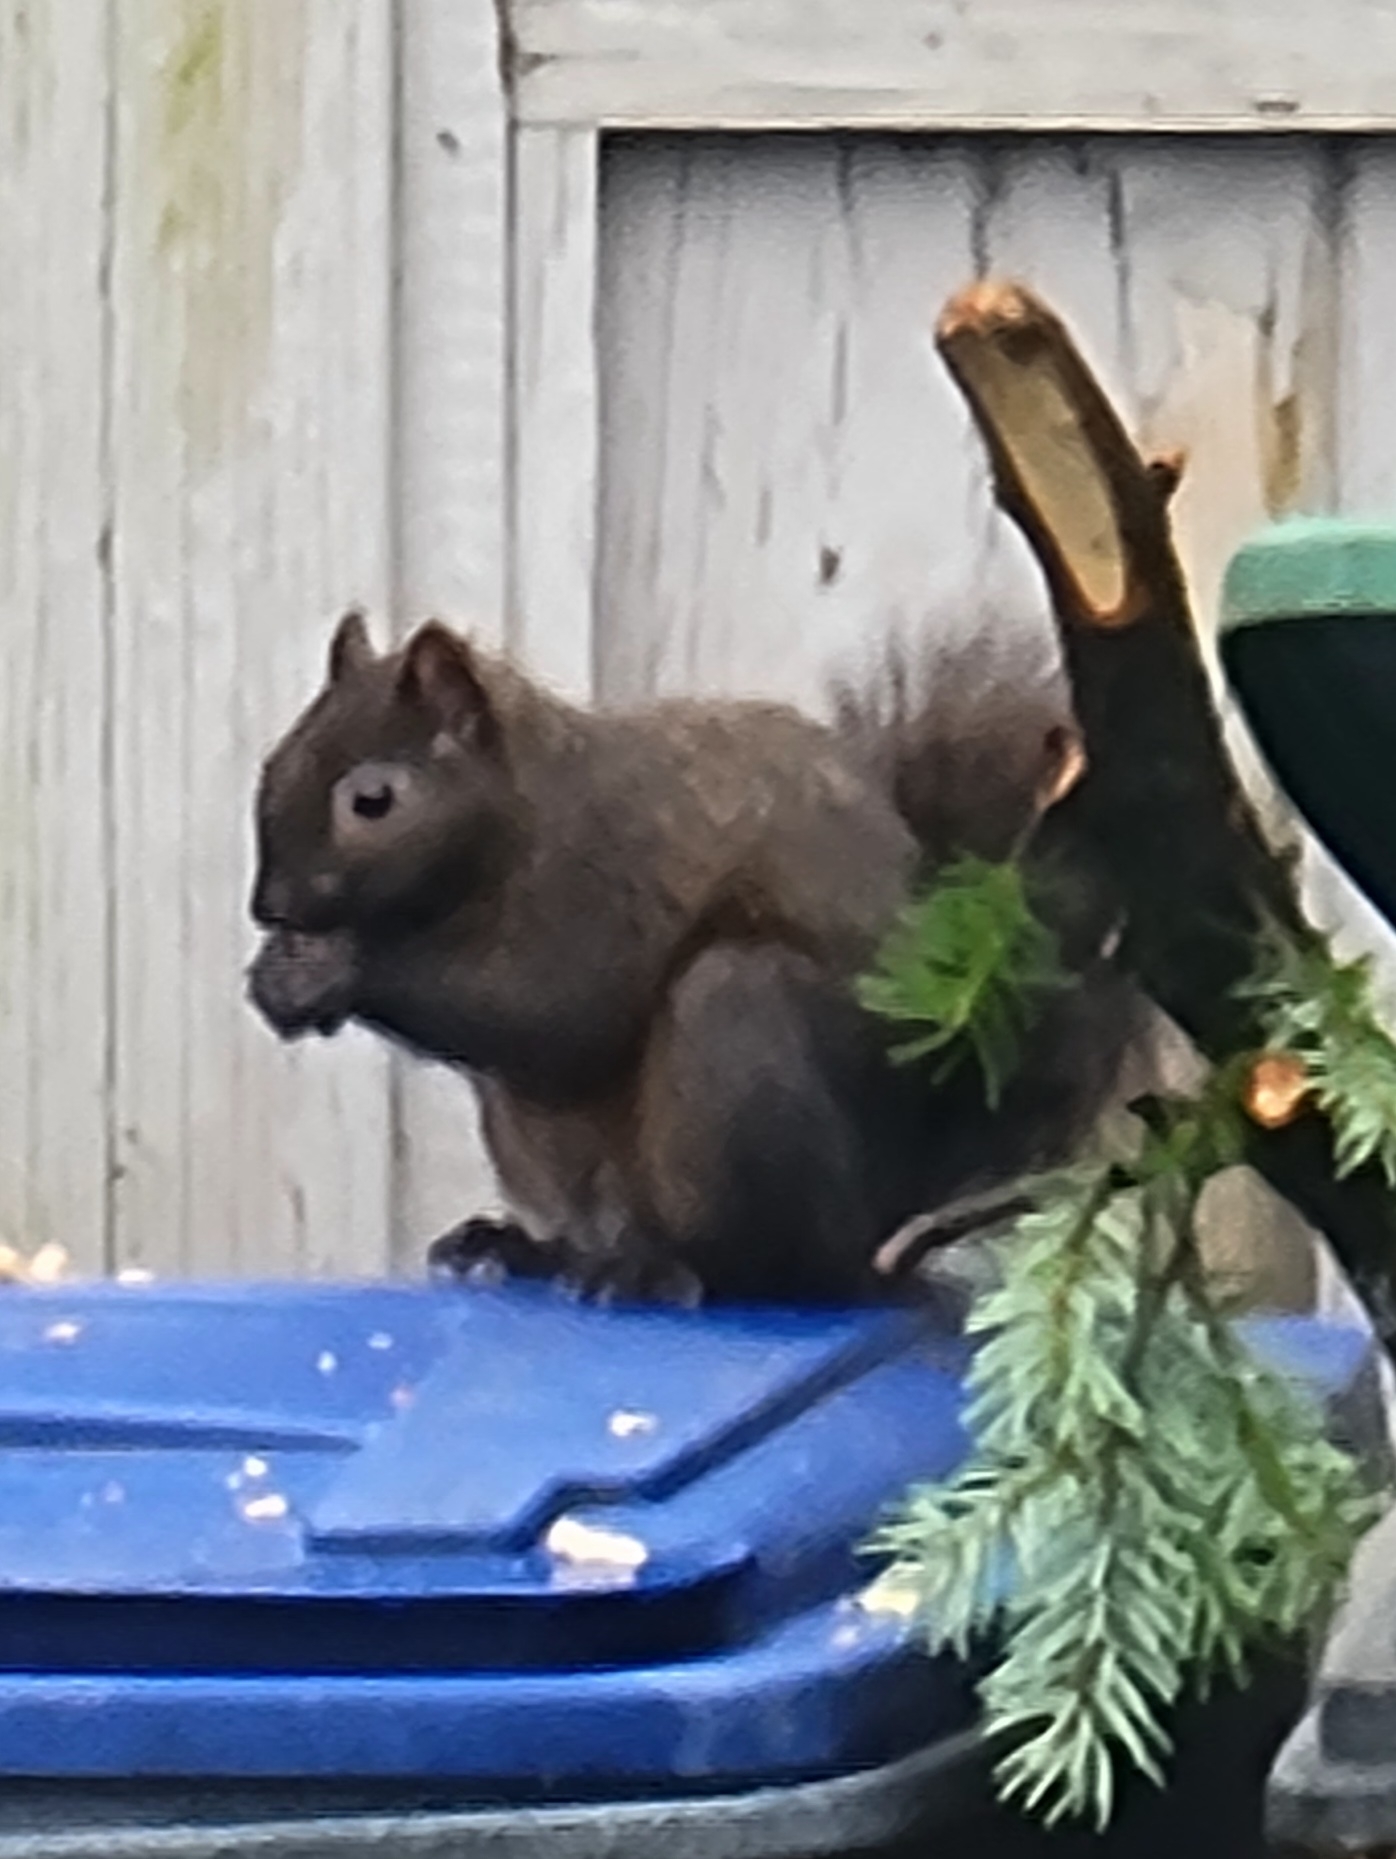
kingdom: Animalia
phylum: Chordata
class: Mammalia
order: Rodentia
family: Sciuridae
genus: Sciurus
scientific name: Sciurus carolinensis
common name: Eastern gray squirrel
